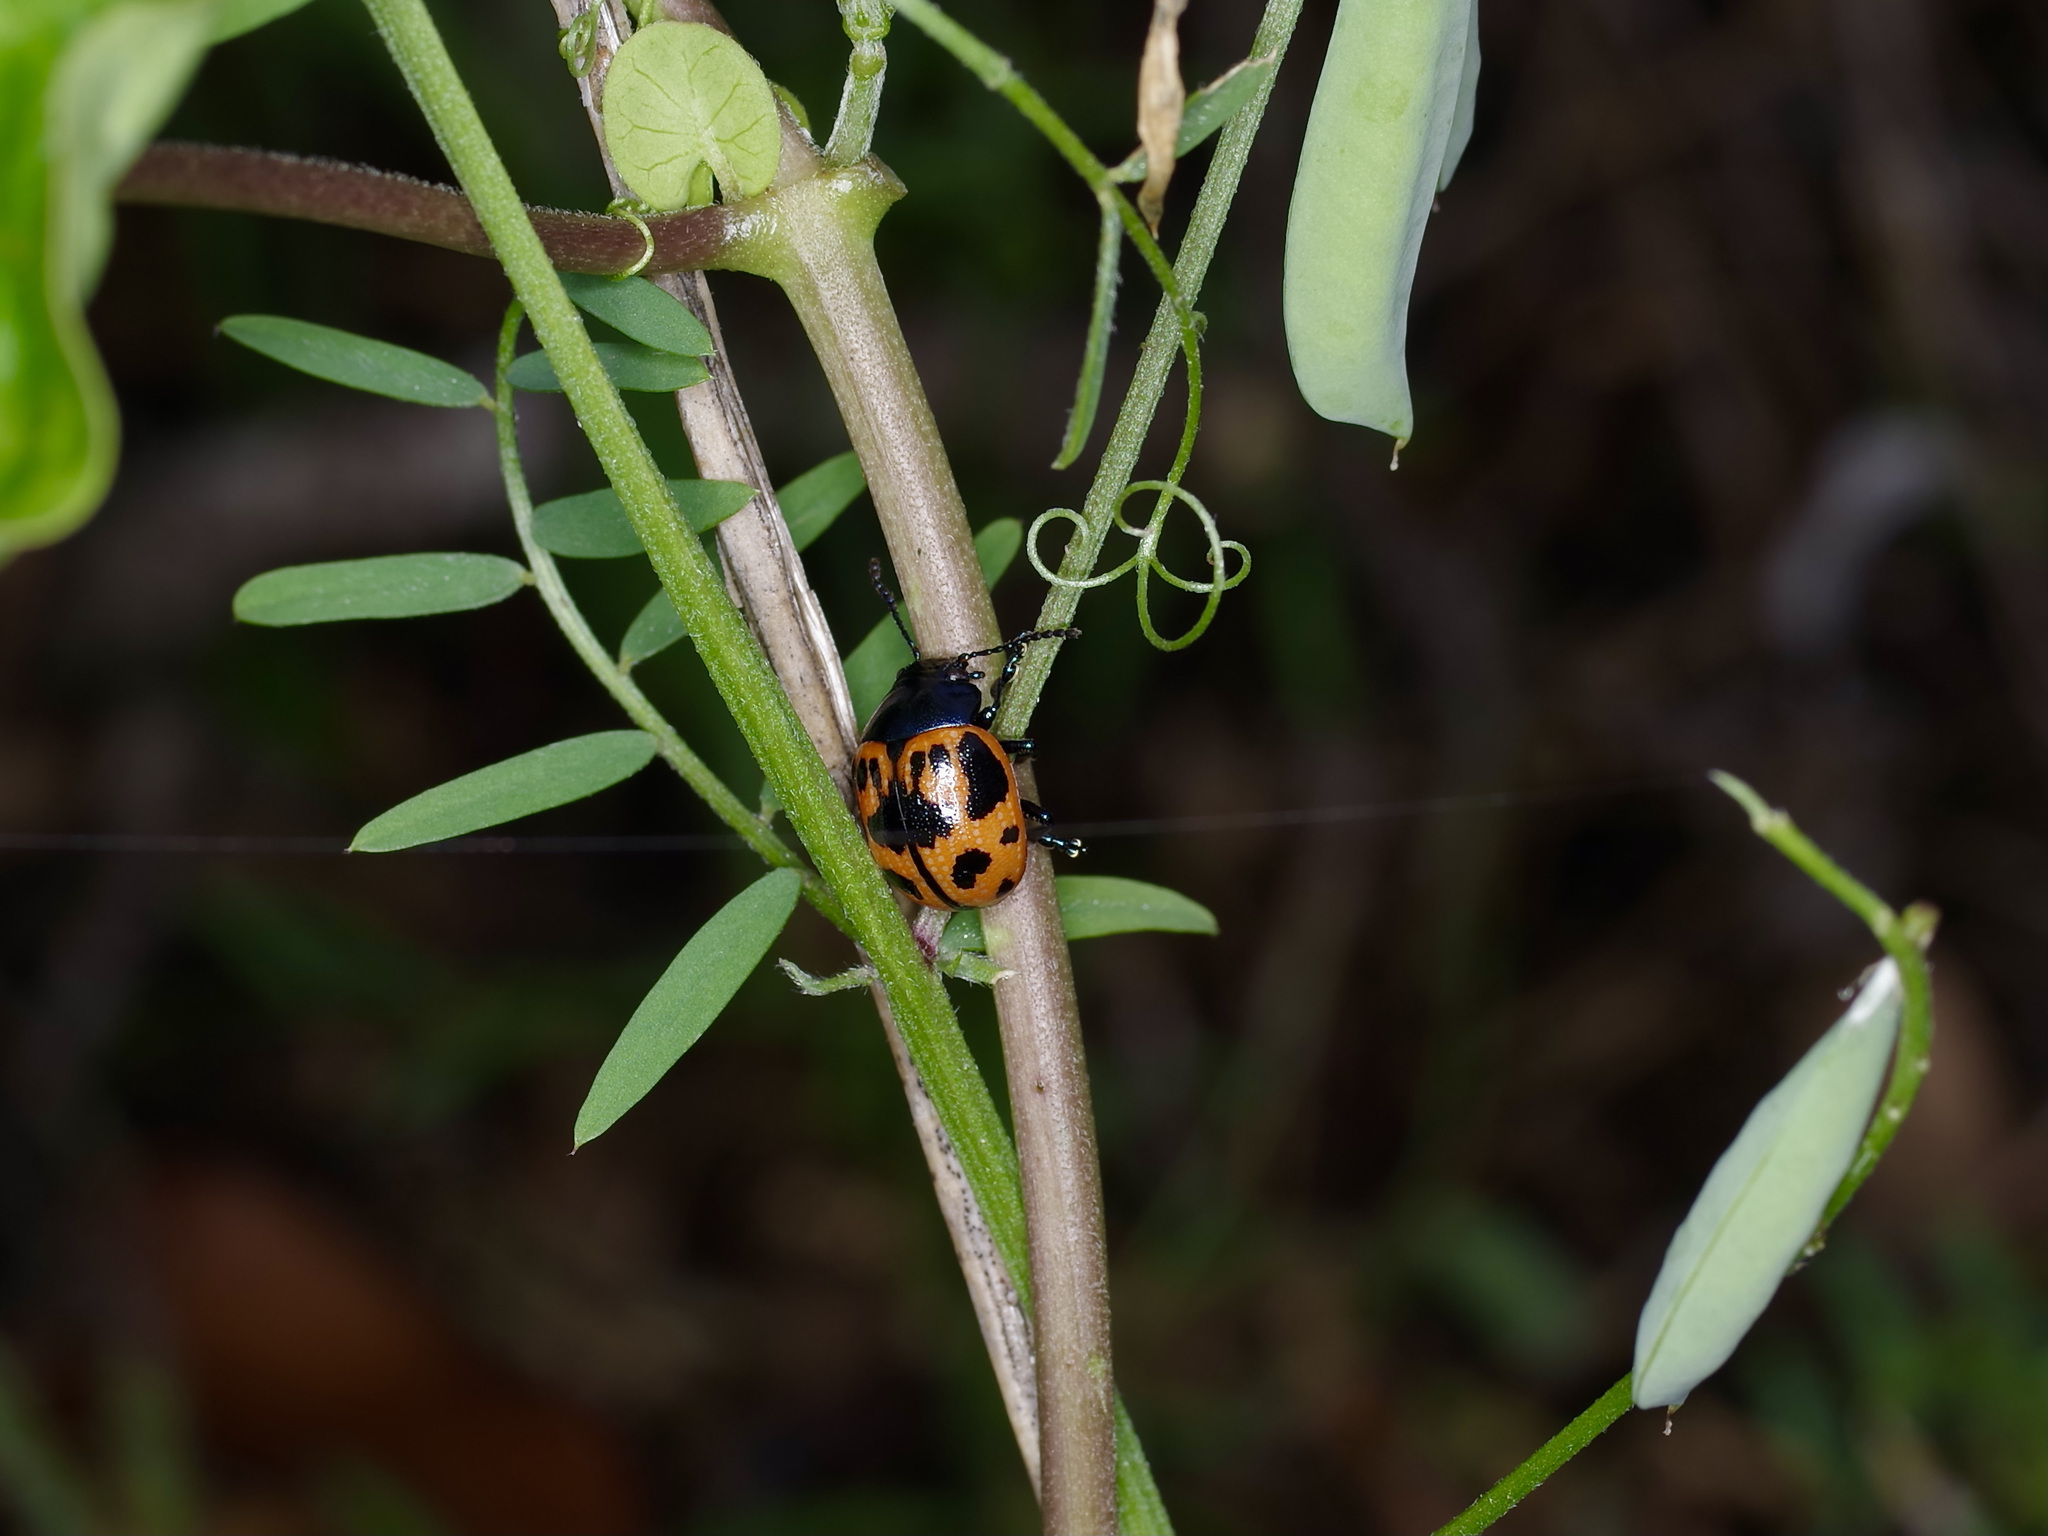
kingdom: Animalia
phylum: Arthropoda
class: Insecta
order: Coleoptera
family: Chrysomelidae
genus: Labidomera
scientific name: Labidomera clivicollis
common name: Swamp milkweed leaf beetle
